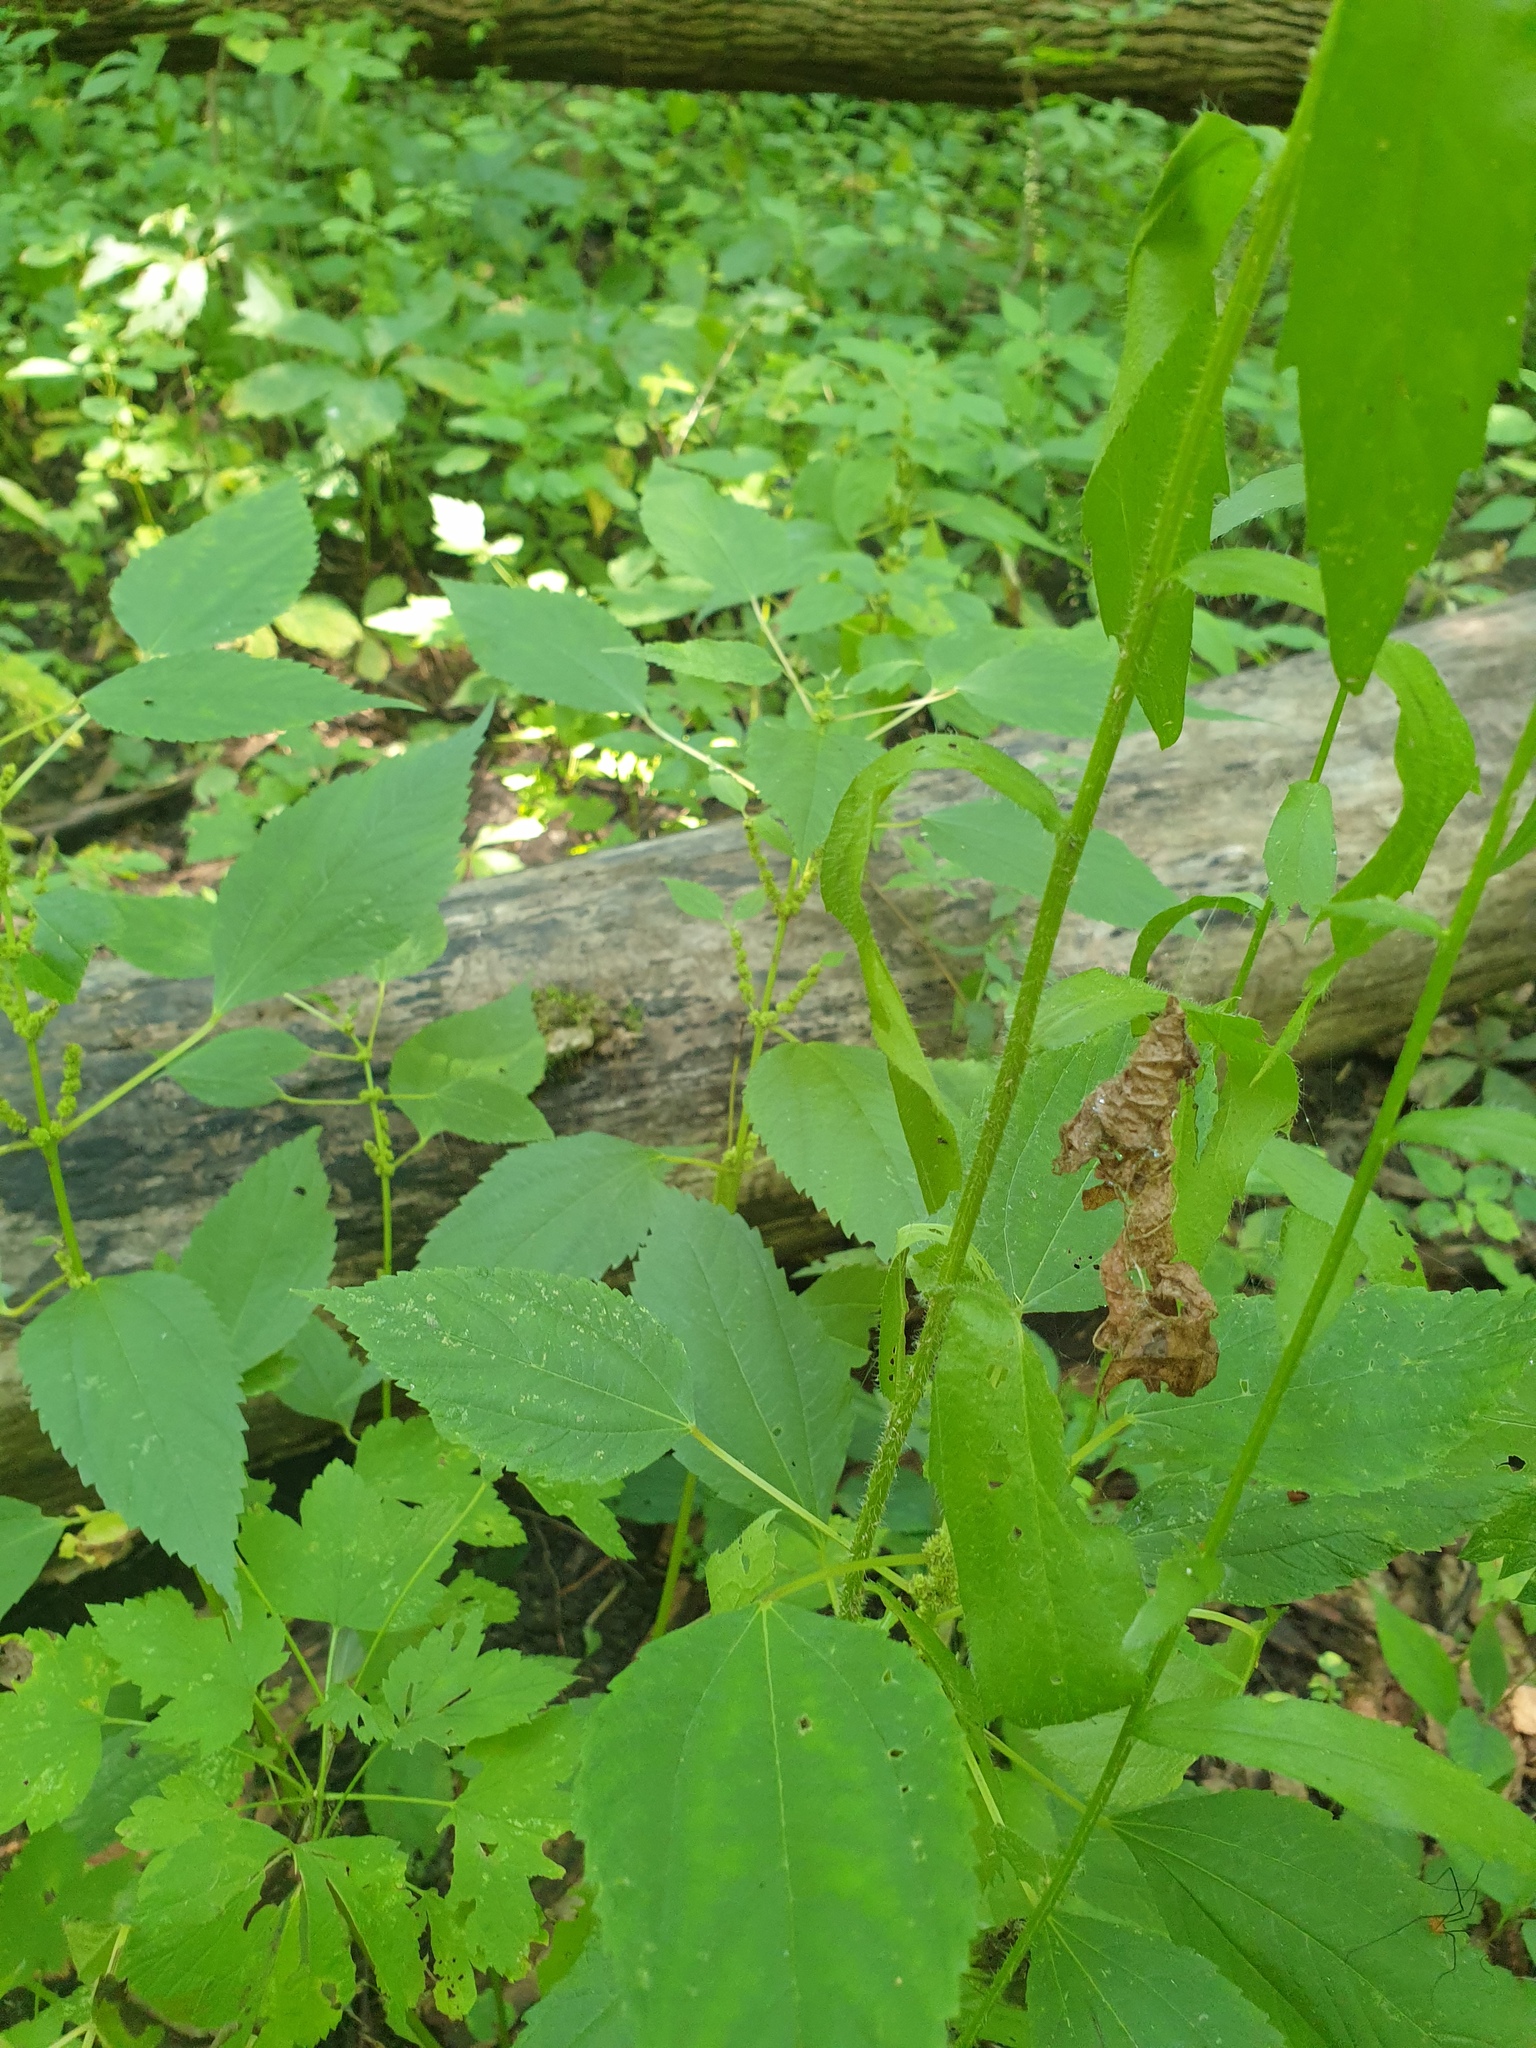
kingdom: Plantae
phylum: Tracheophyta
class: Magnoliopsida
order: Asterales
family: Asteraceae
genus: Erigeron
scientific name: Erigeron annuus
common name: Tall fleabane
